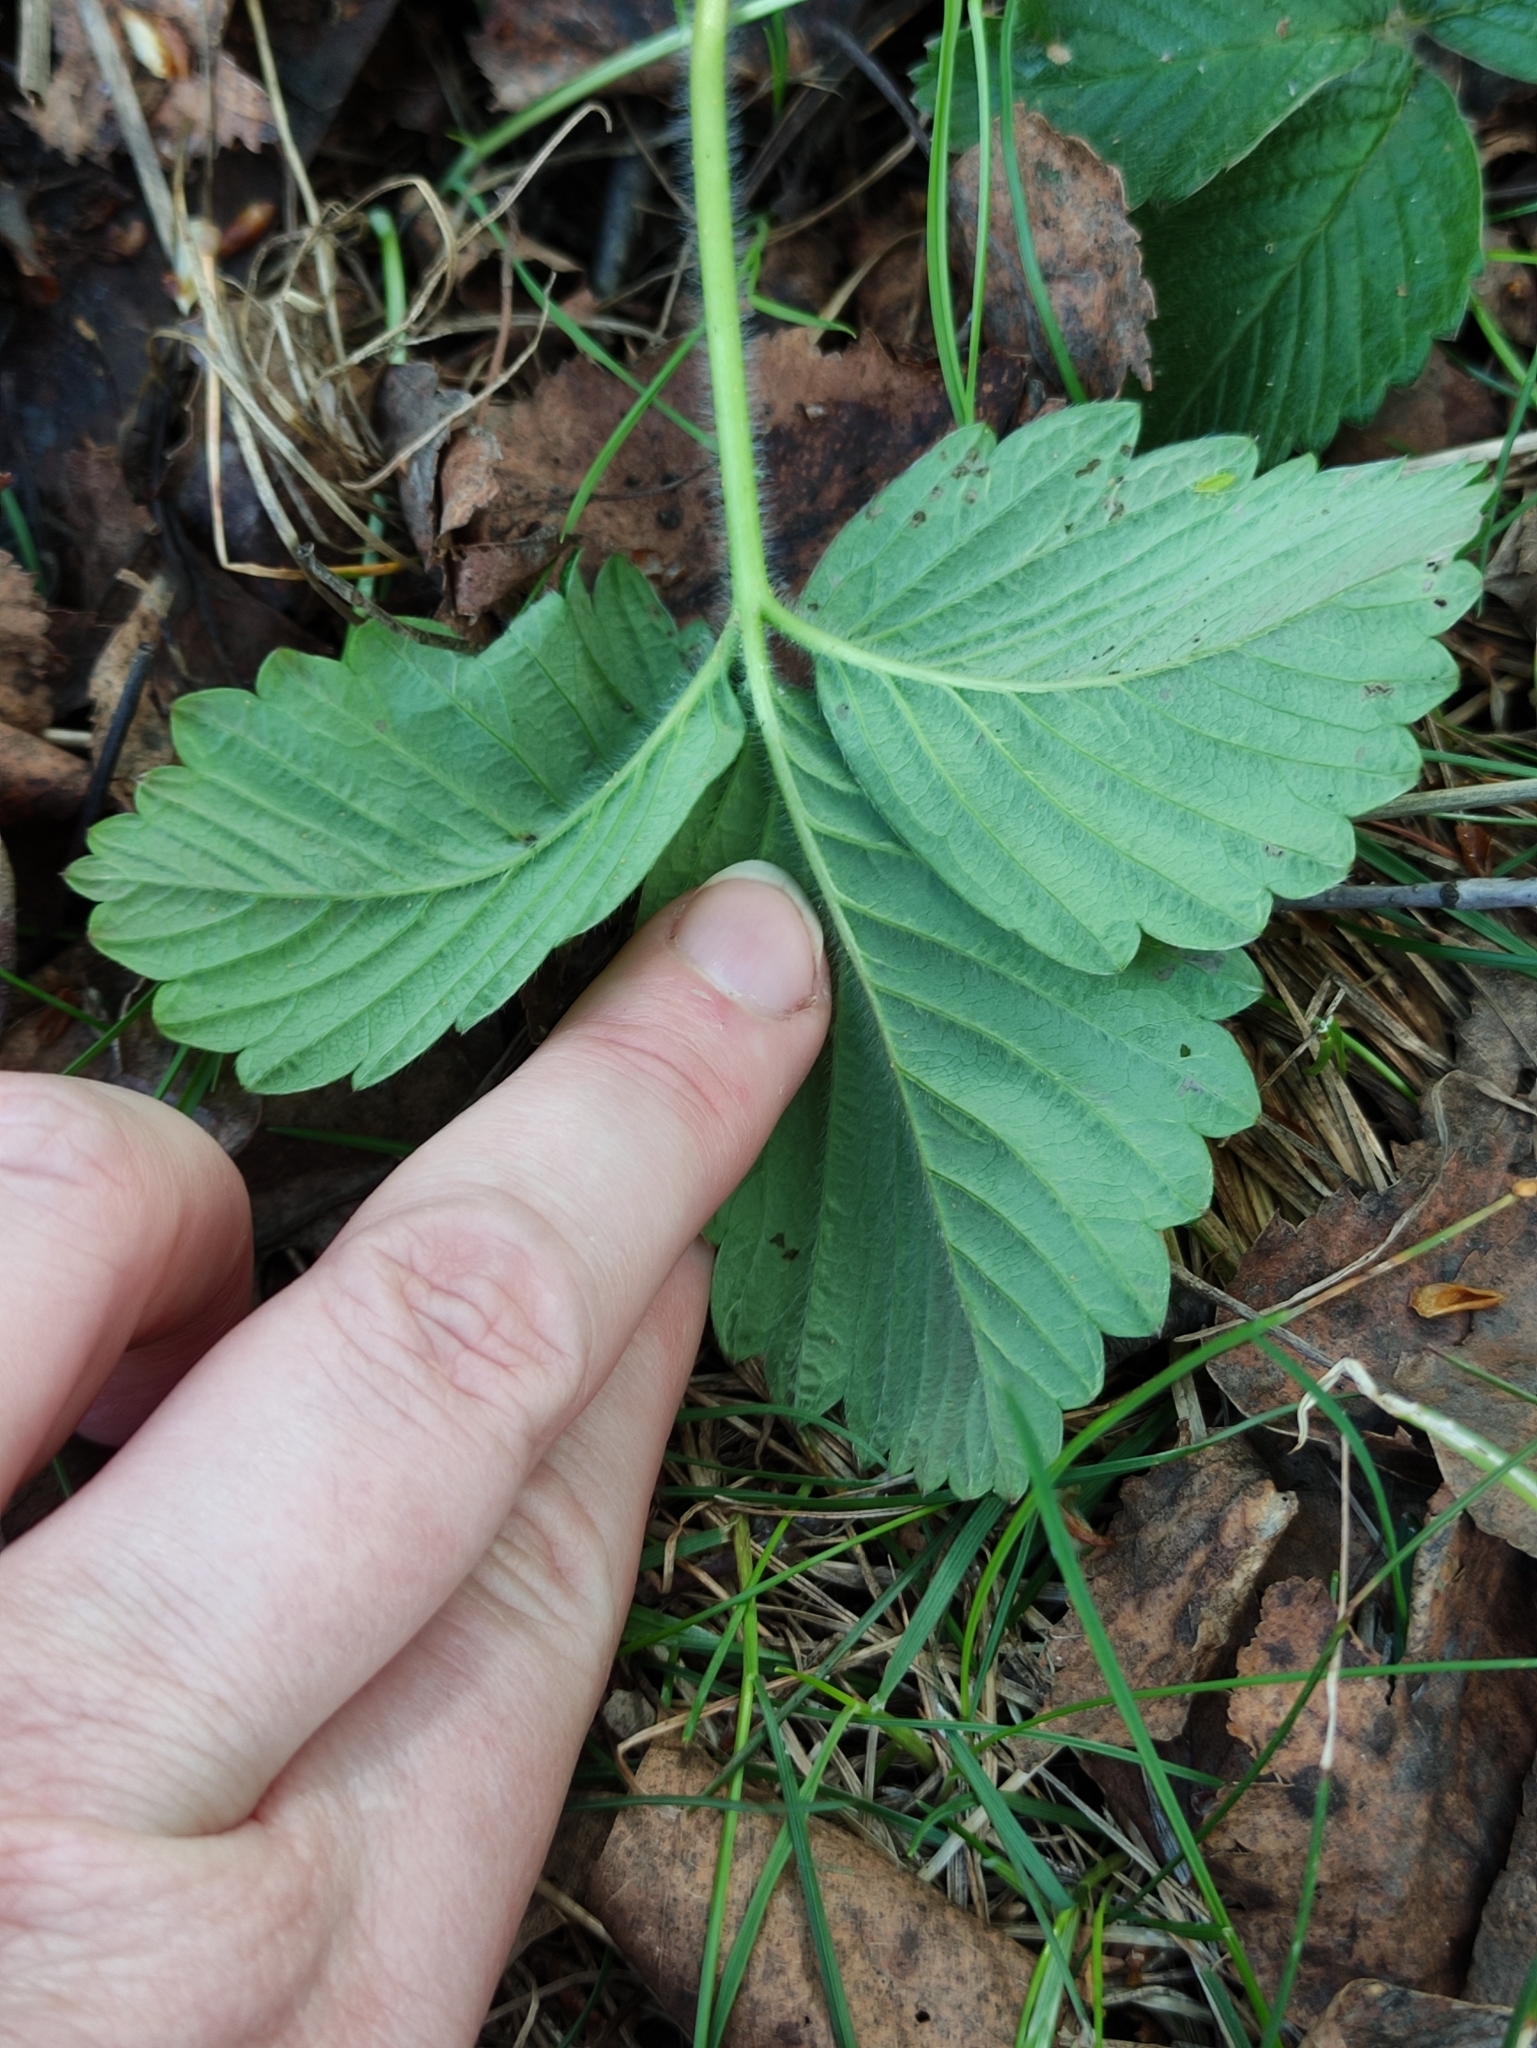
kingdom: Plantae
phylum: Tracheophyta
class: Magnoliopsida
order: Rosales
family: Rosaceae
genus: Fragaria
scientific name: Fragaria moschata
